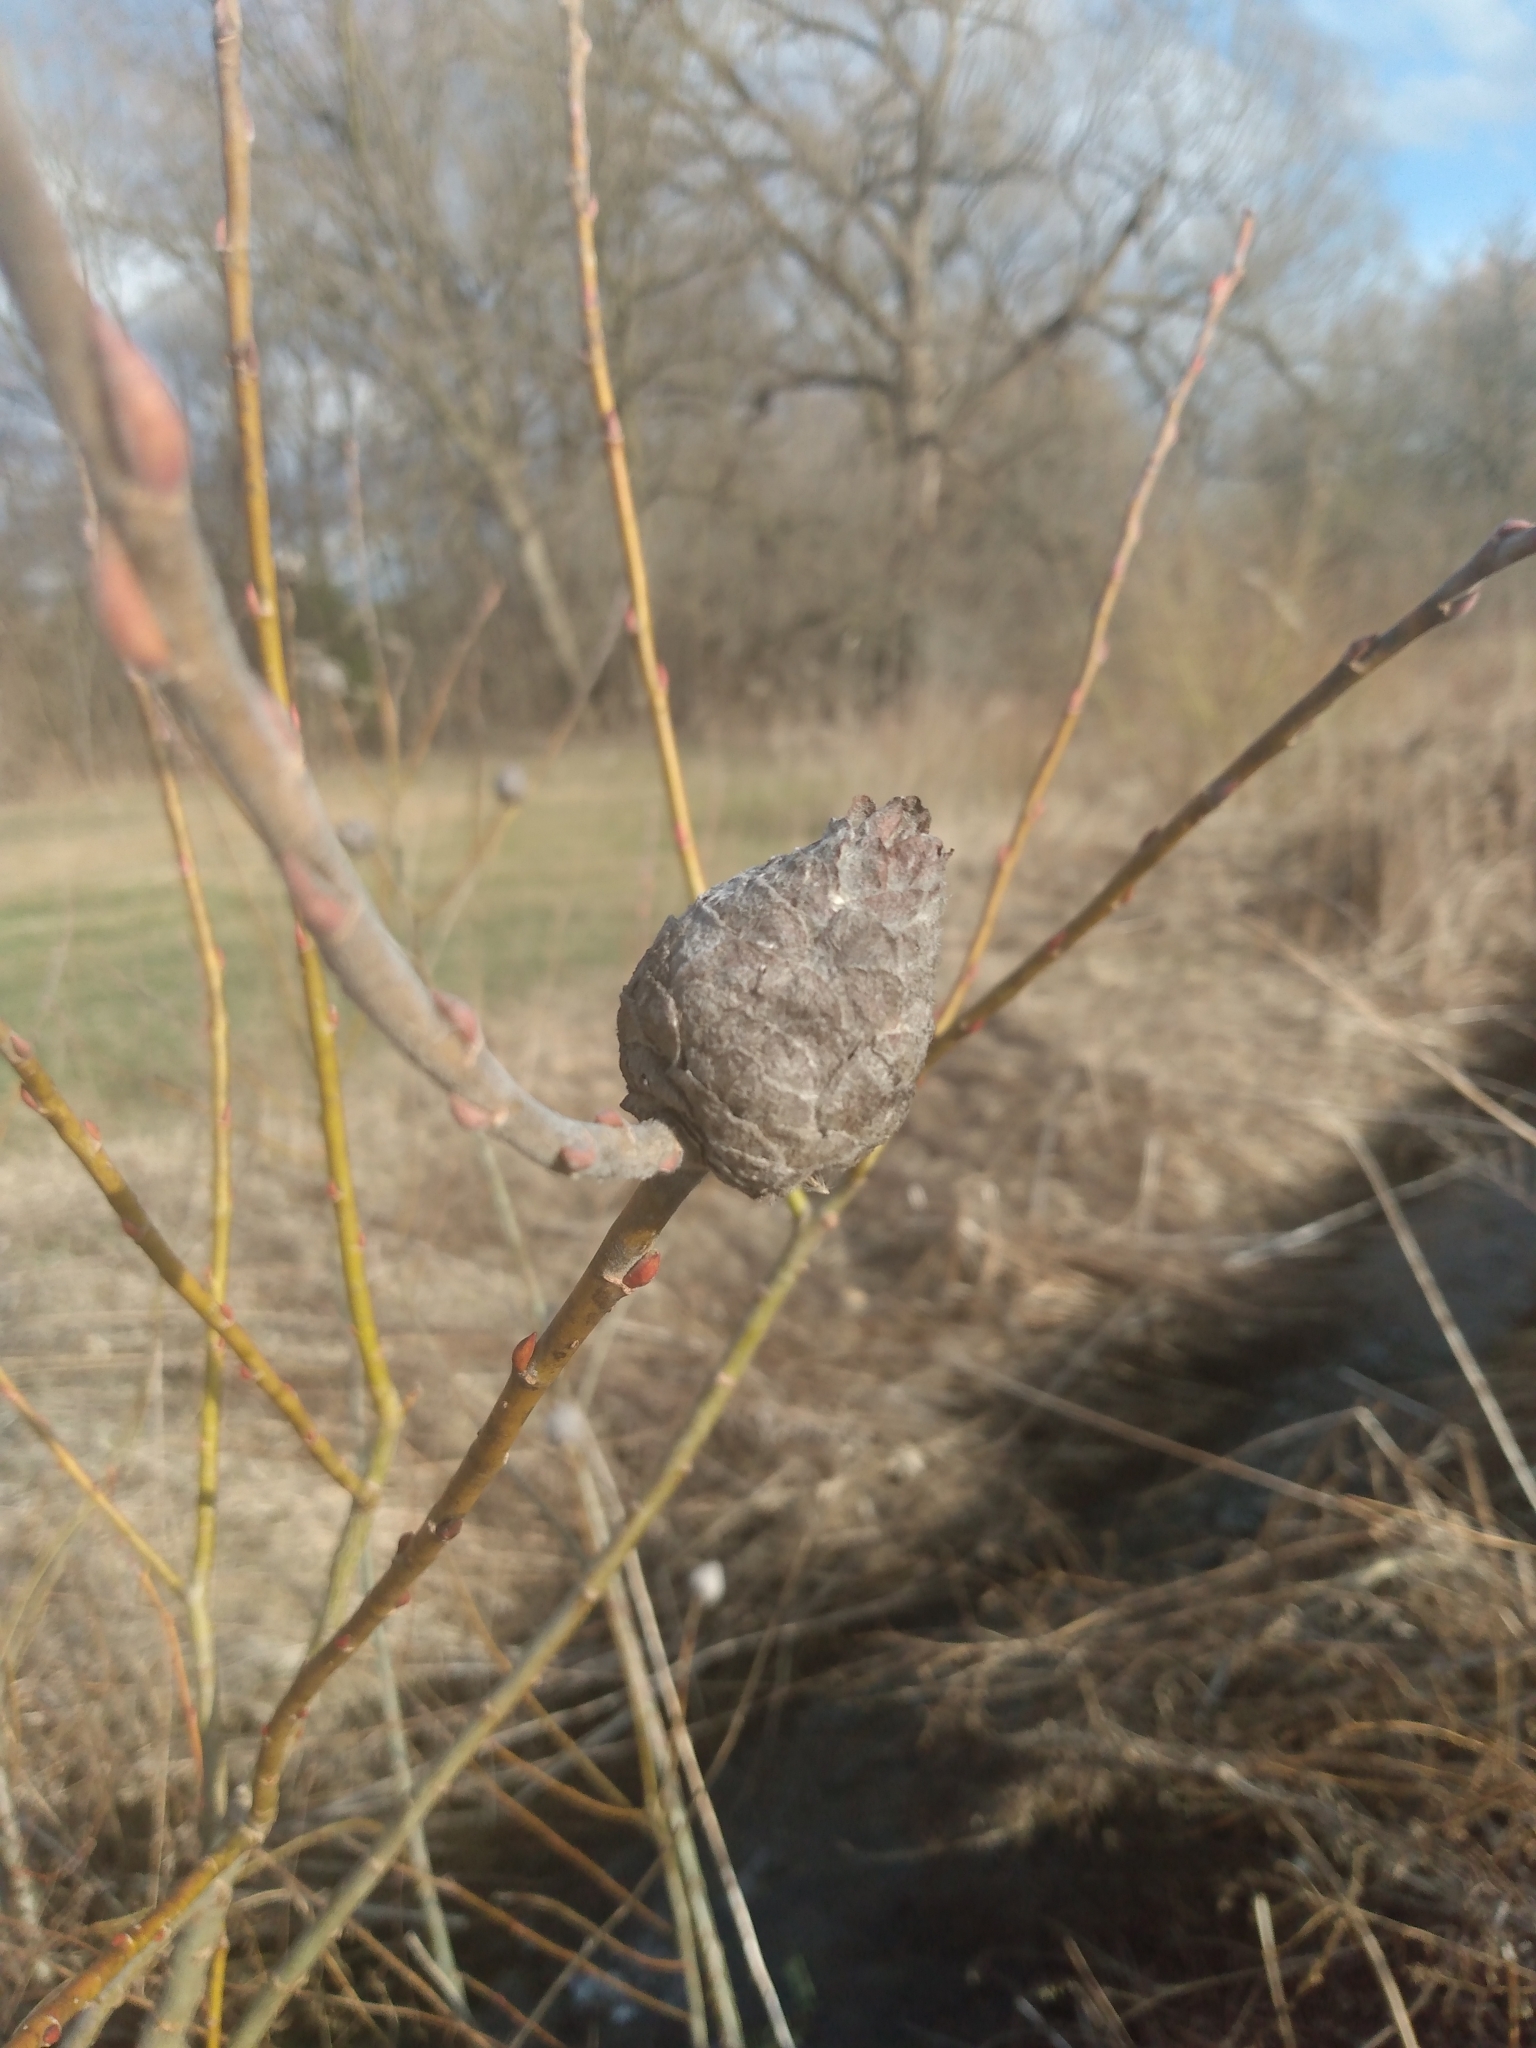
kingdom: Animalia
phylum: Arthropoda
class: Insecta
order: Diptera
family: Cecidomyiidae
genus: Rabdophaga
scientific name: Rabdophaga strobiloides
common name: Willow pinecone gall midge
